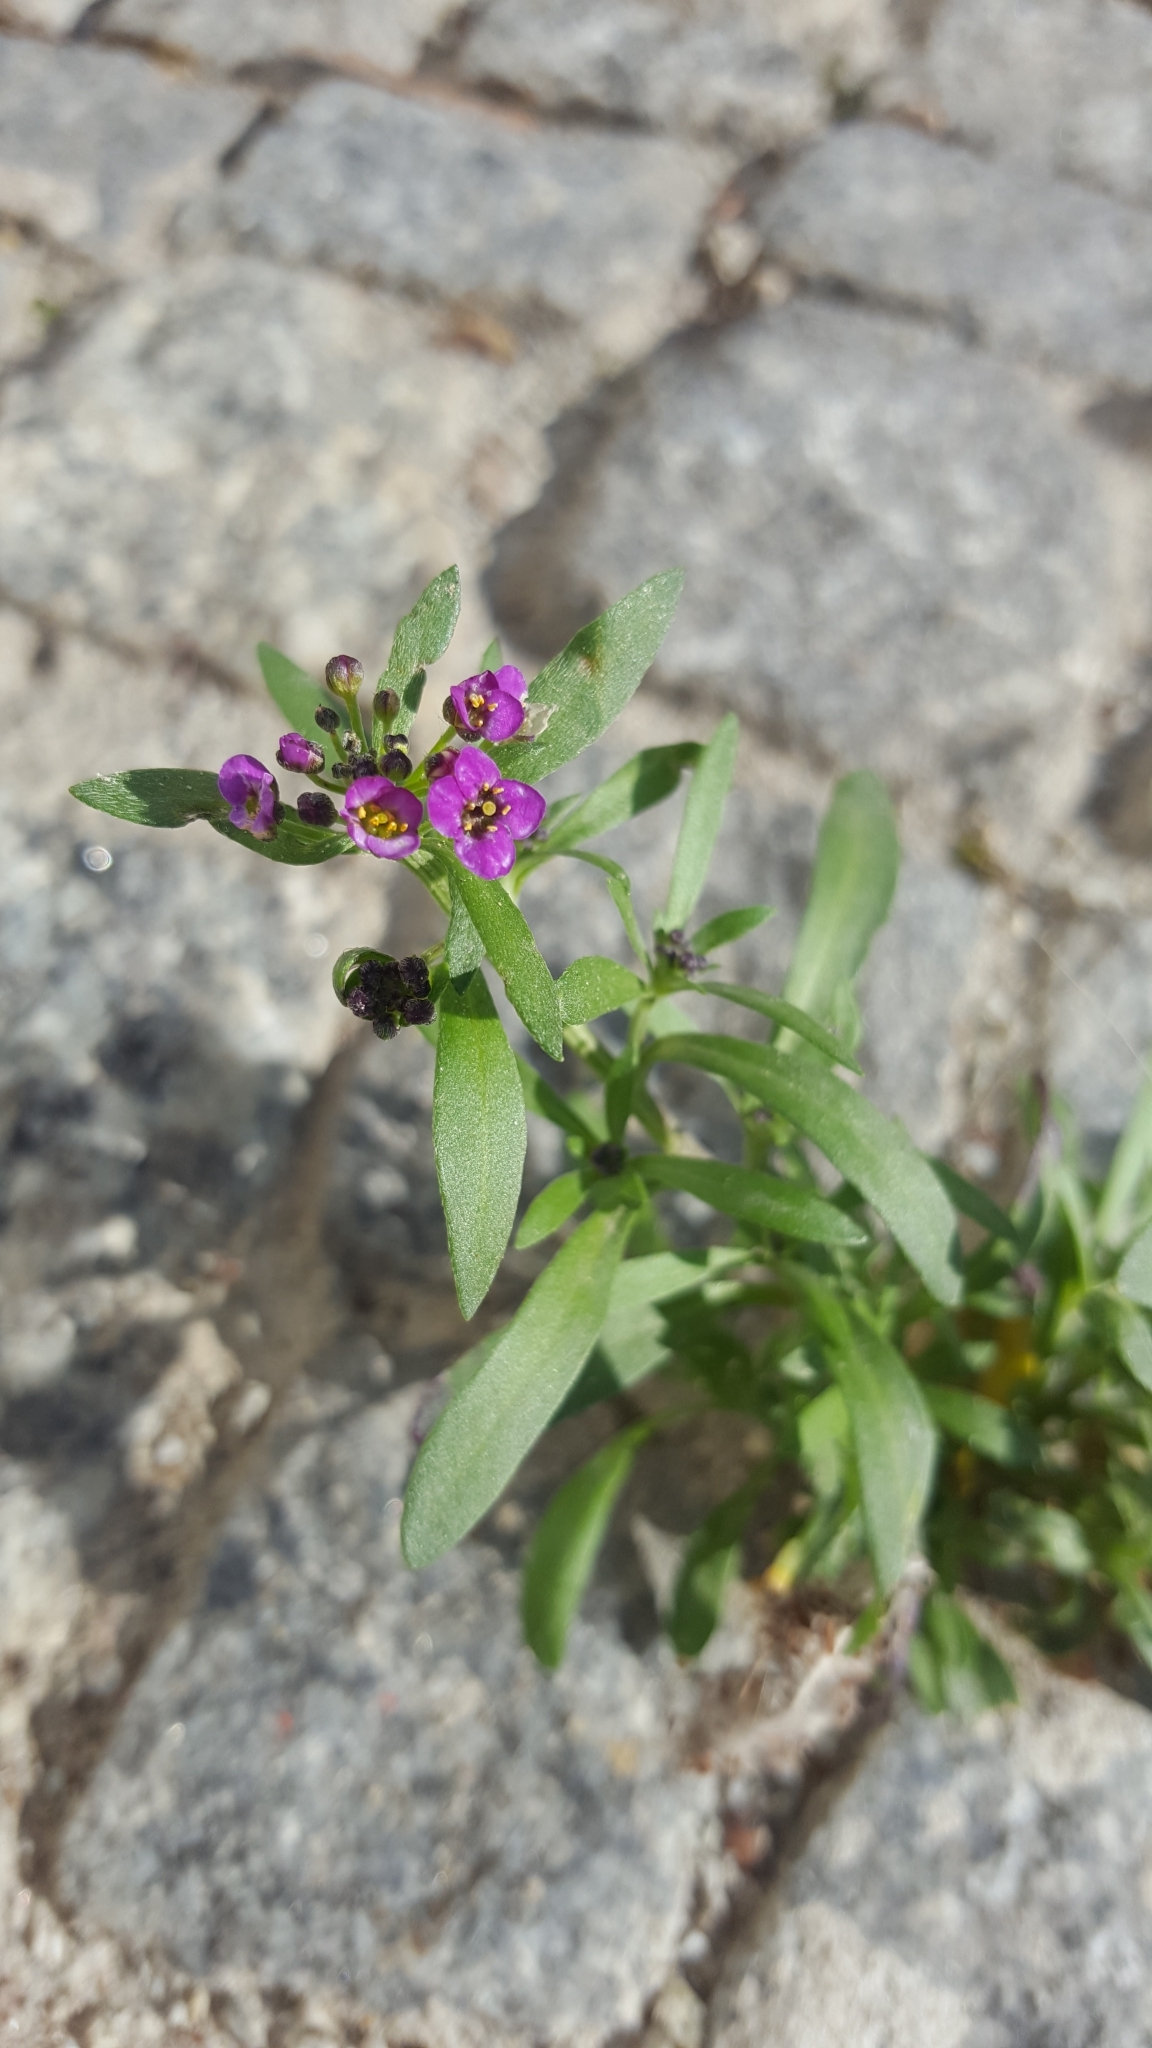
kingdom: Plantae
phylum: Tracheophyta
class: Magnoliopsida
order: Brassicales
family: Brassicaceae
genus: Lobularia
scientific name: Lobularia maritima
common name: Sweet alison
